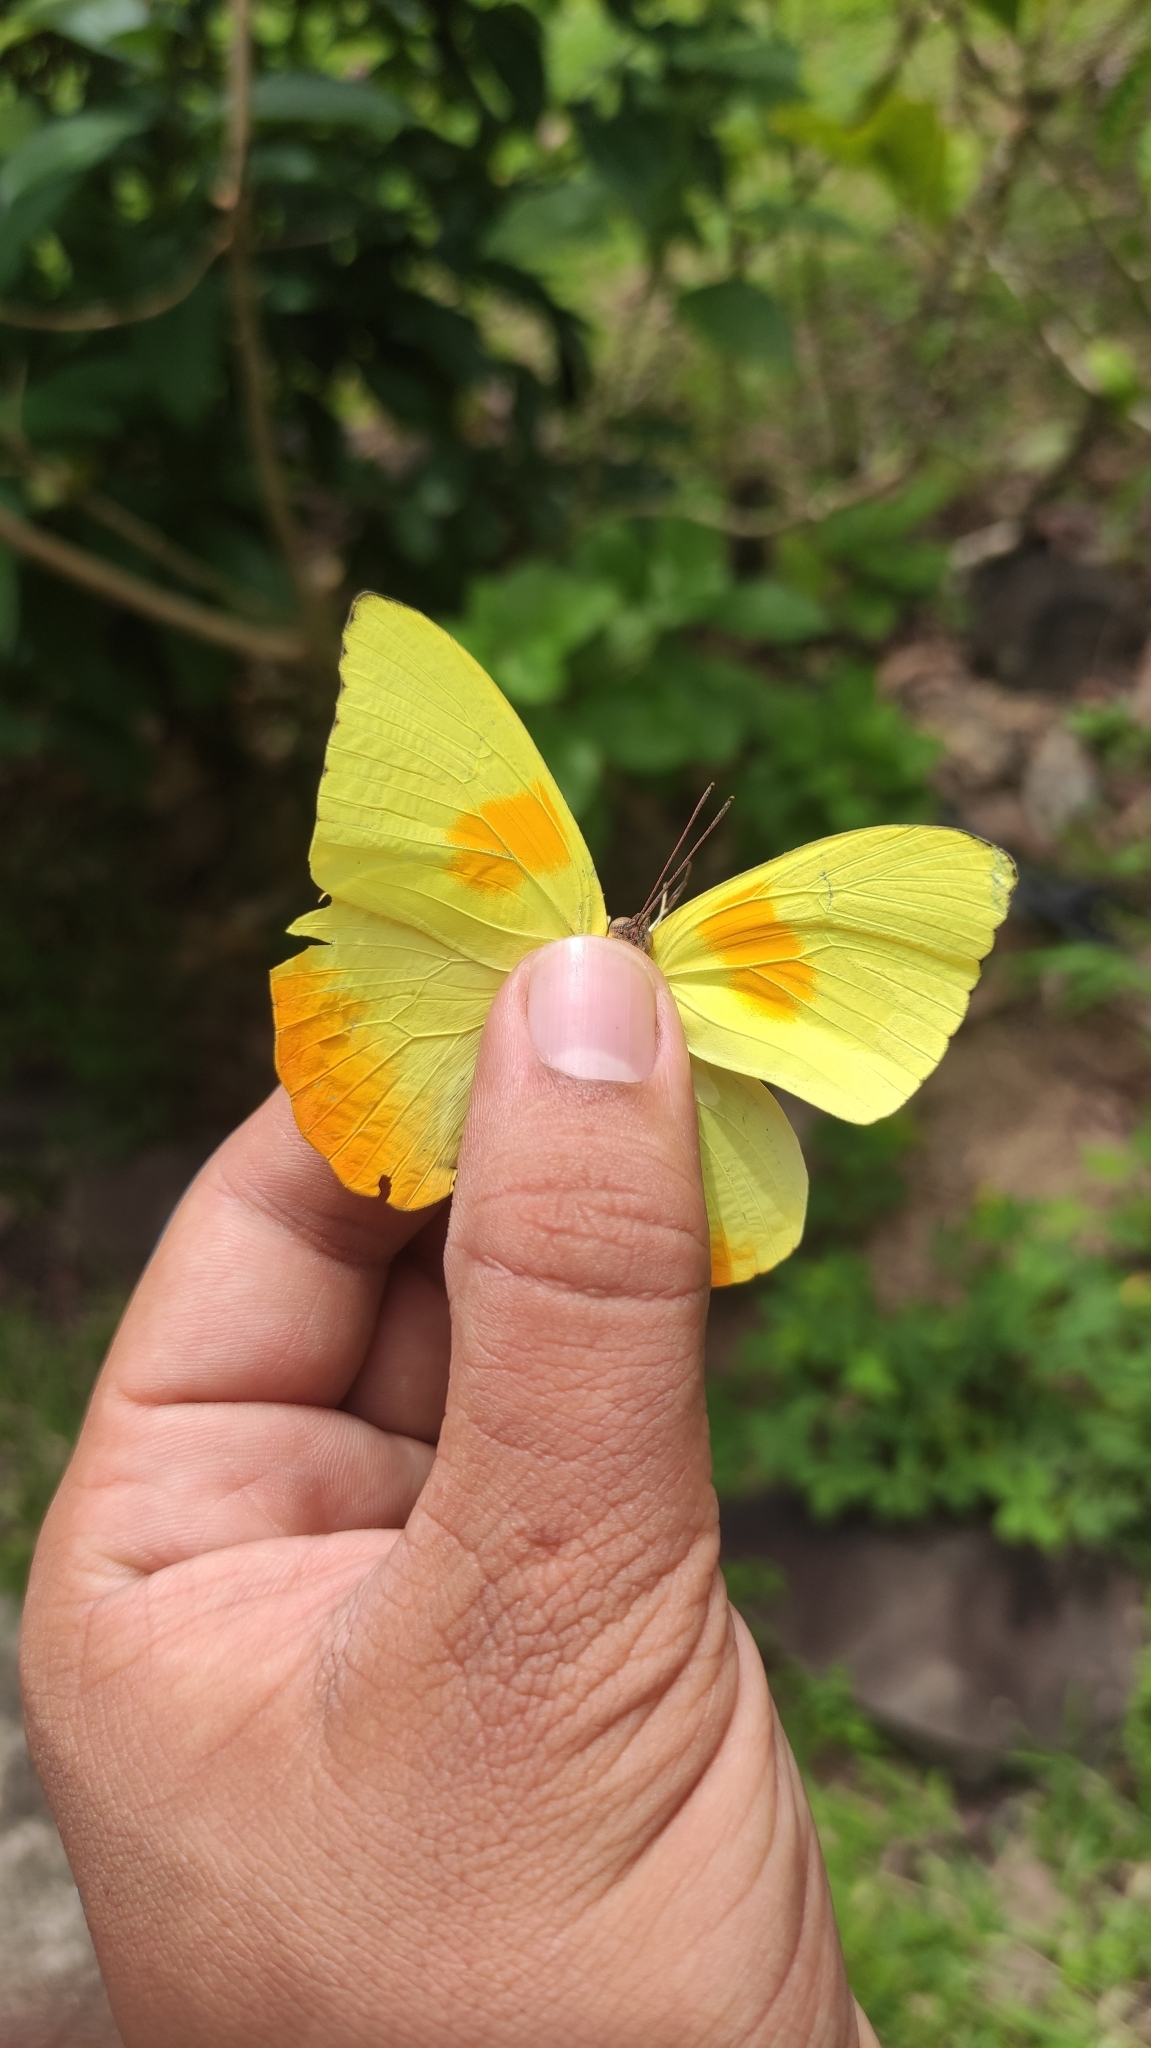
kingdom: Animalia
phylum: Arthropoda
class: Insecta
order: Lepidoptera
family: Pieridae
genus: Phoebis
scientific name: Phoebis philea
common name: Orange-barred giant sulphur
